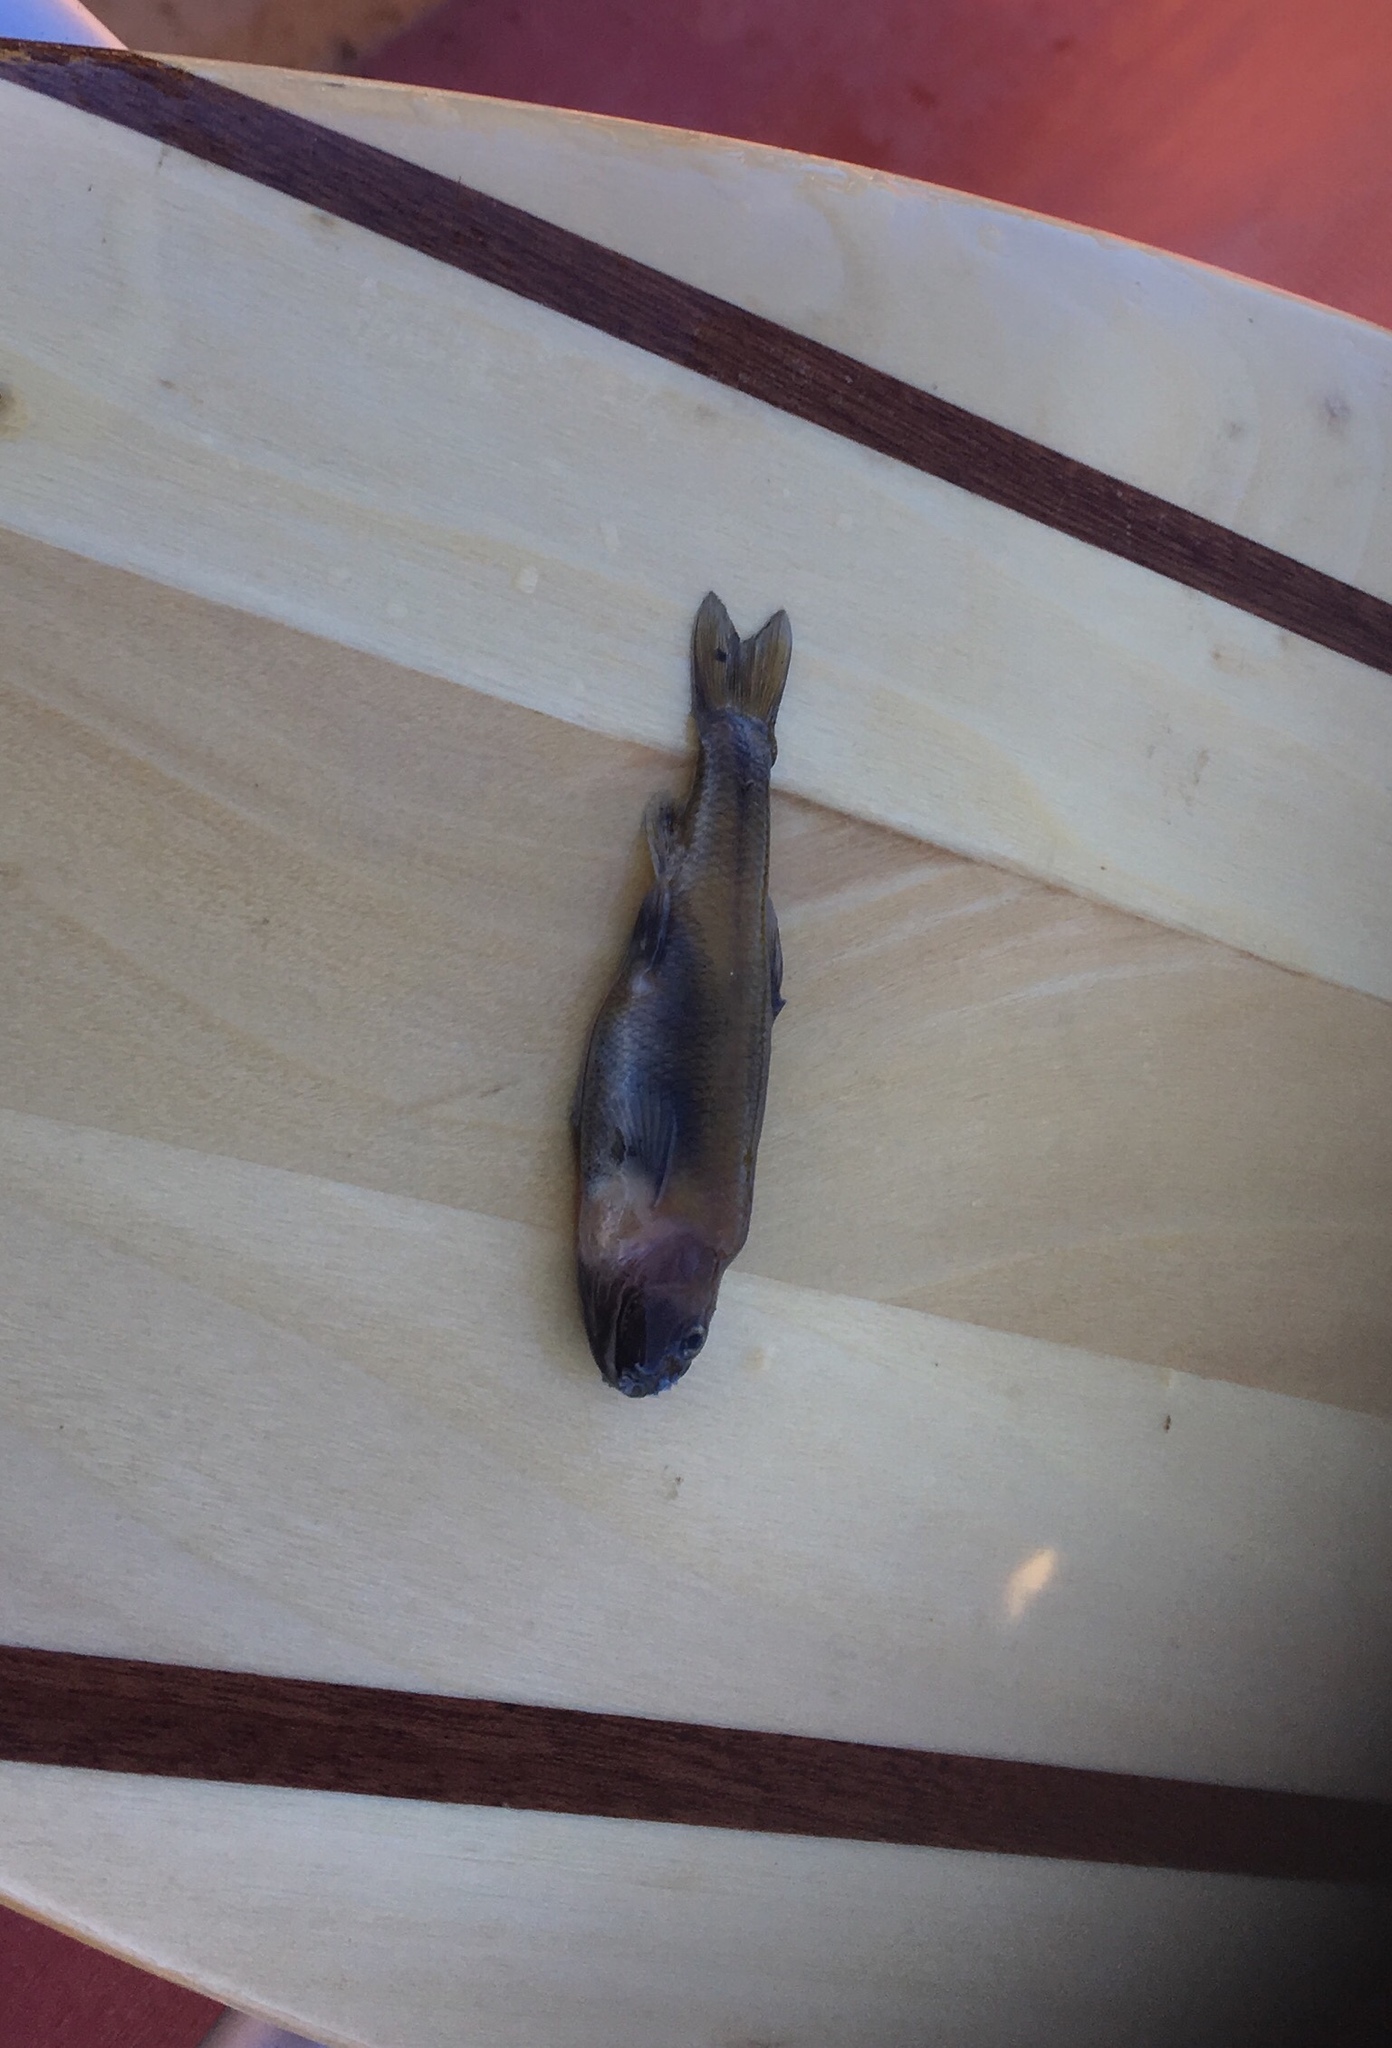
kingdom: Animalia
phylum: Chordata
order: Cypriniformes
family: Cyprinidae
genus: Pimephales
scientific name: Pimephales promelas
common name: Fathead minnow
